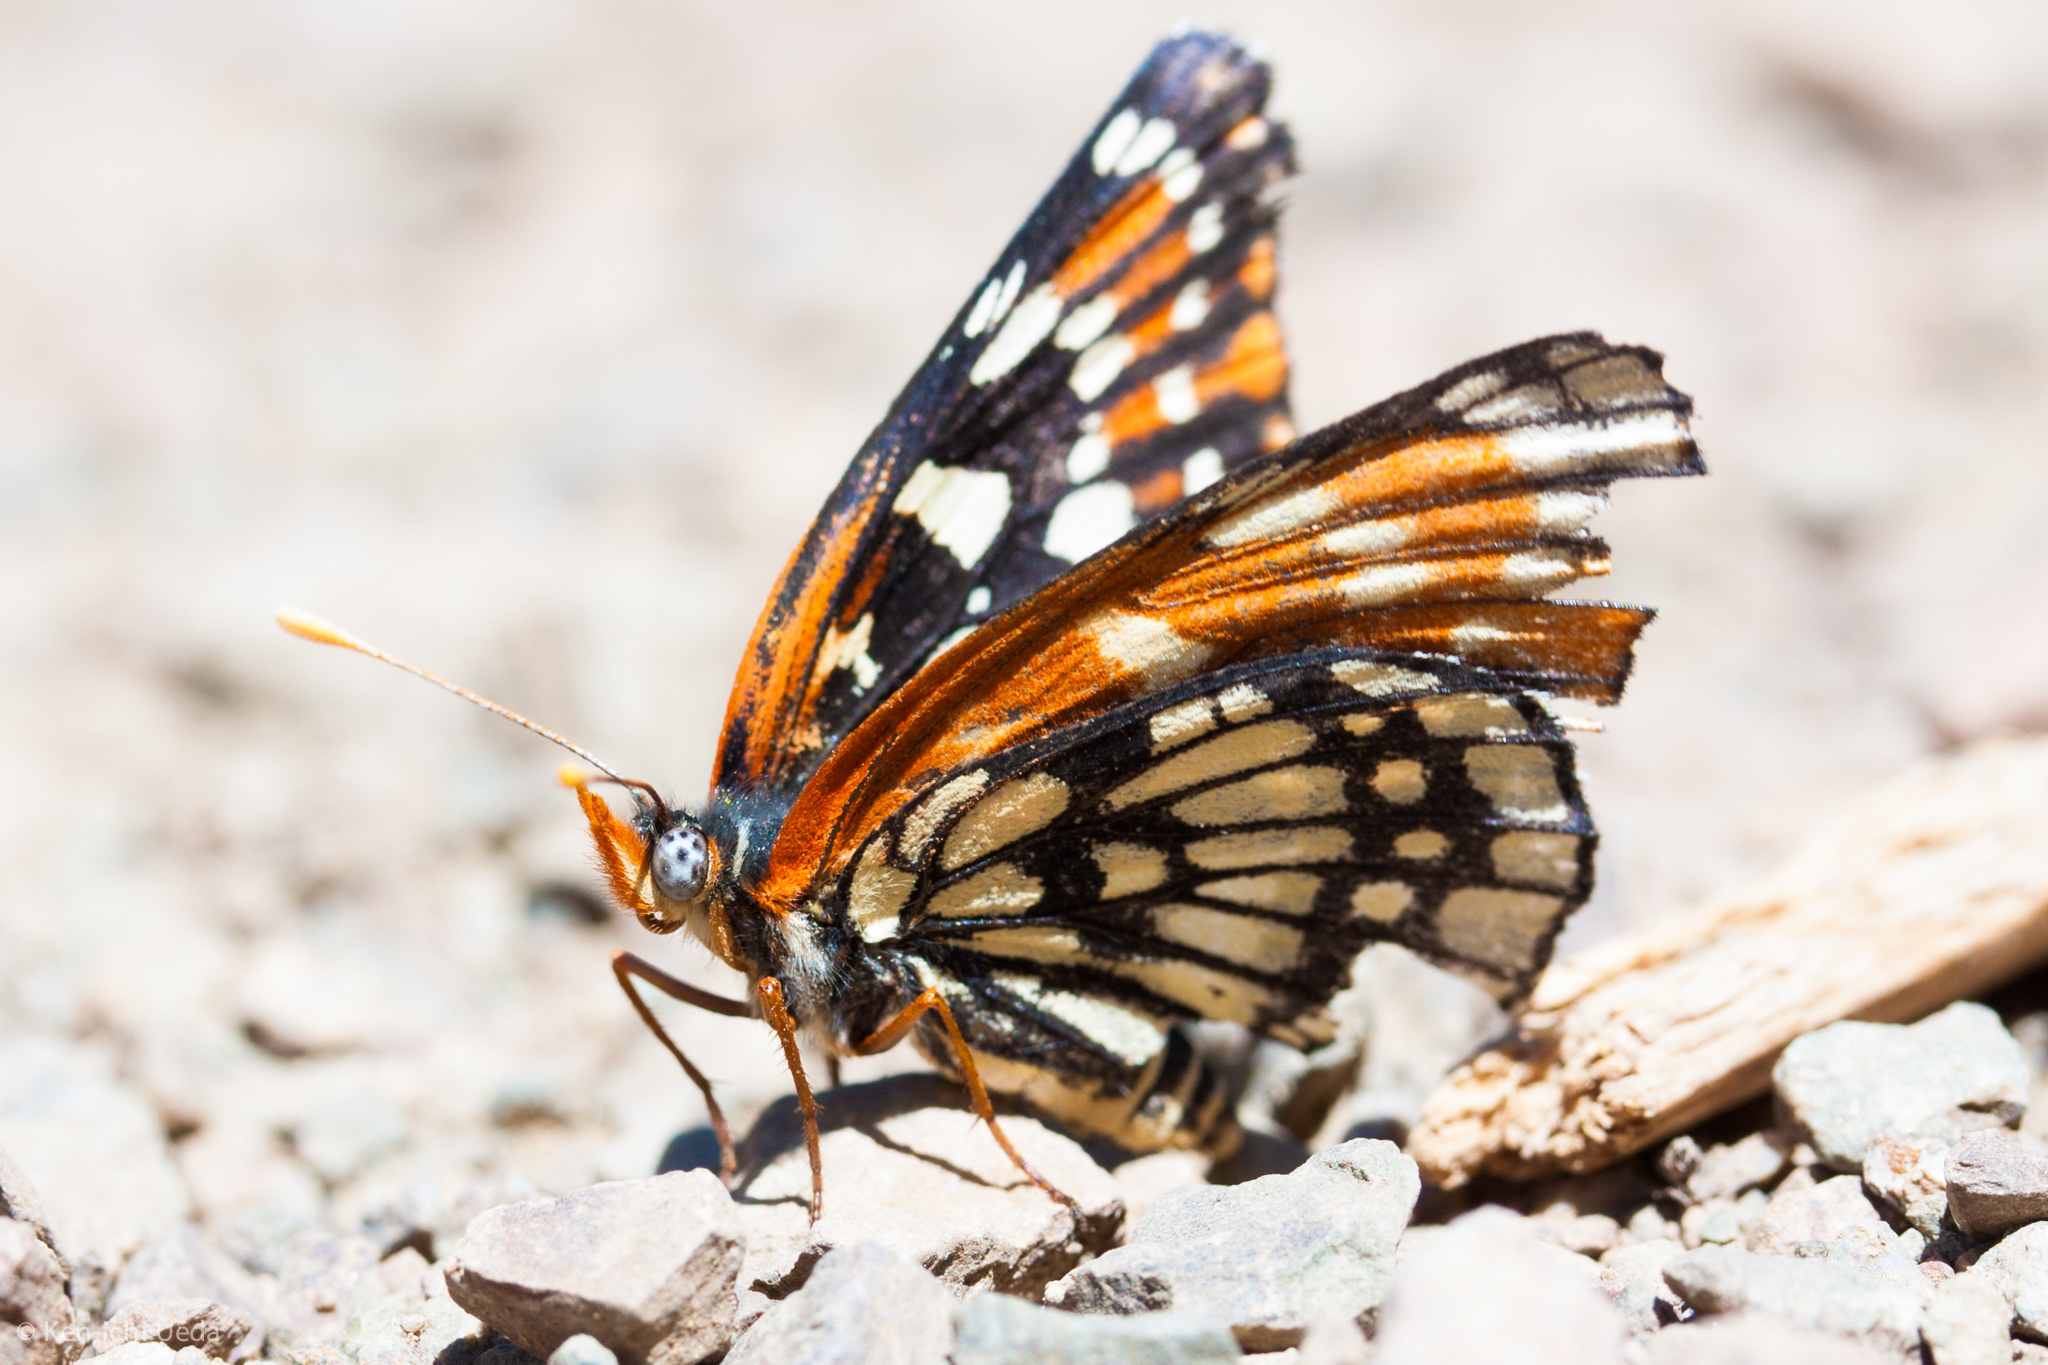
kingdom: Animalia
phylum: Arthropoda
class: Insecta
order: Lepidoptera
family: Nymphalidae
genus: Thessalia
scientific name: Thessalia leanira
